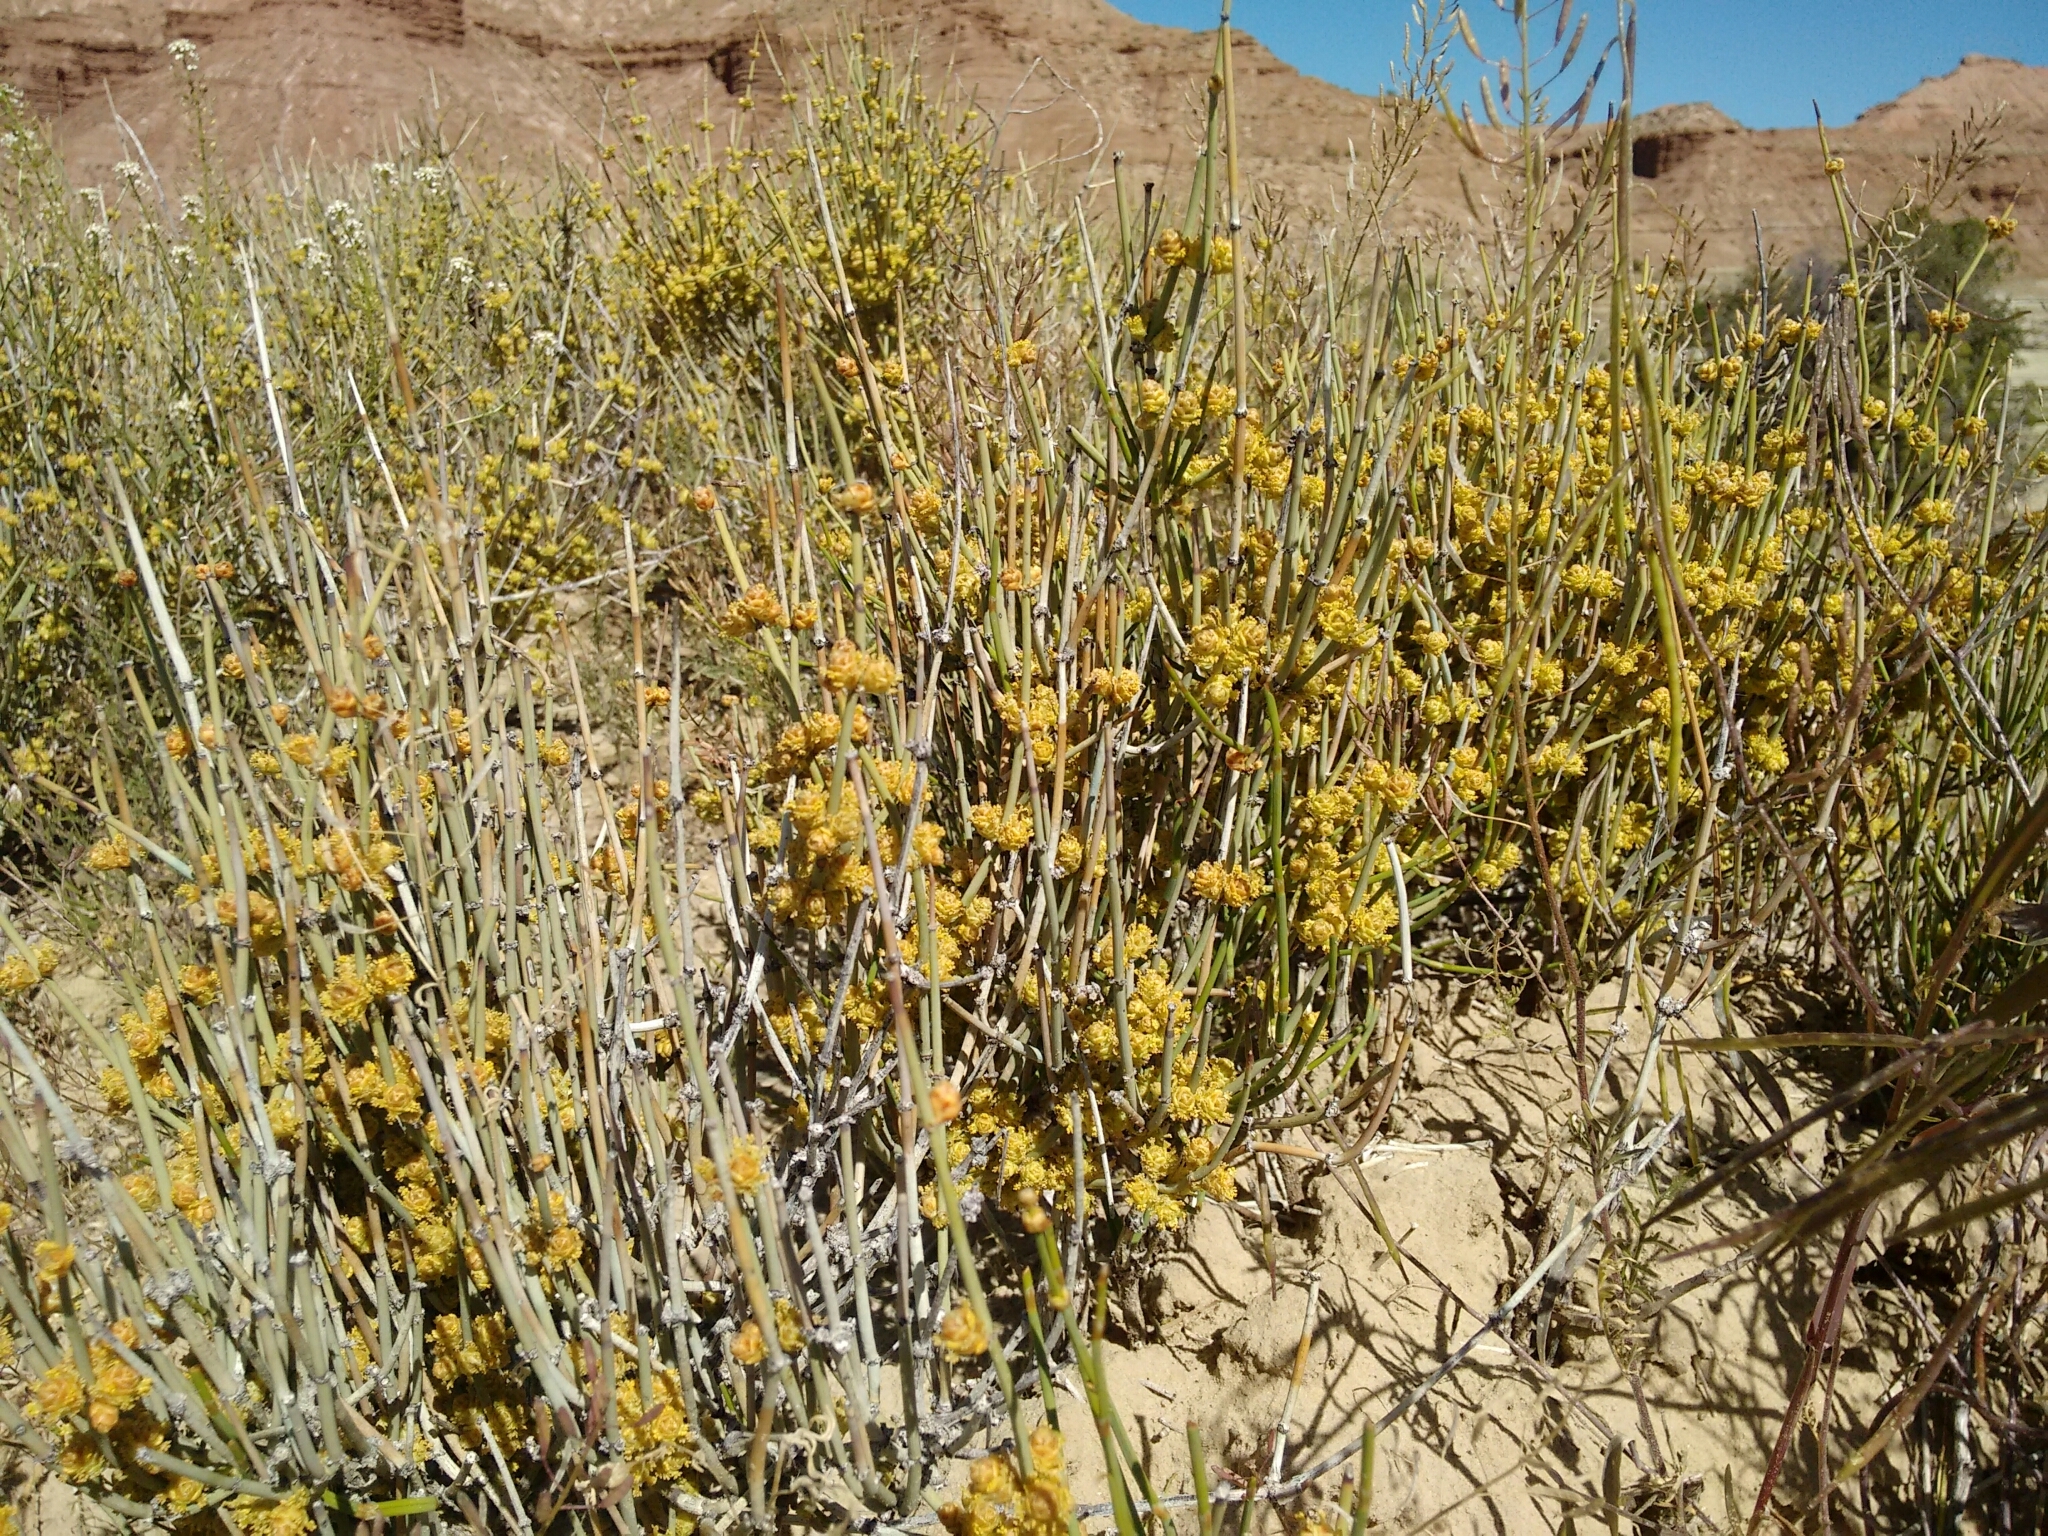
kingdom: Plantae
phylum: Tracheophyta
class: Gnetopsida
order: Ephedrales
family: Ephedraceae
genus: Ephedra
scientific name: Ephedra torreyana
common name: Torrey ephedra
